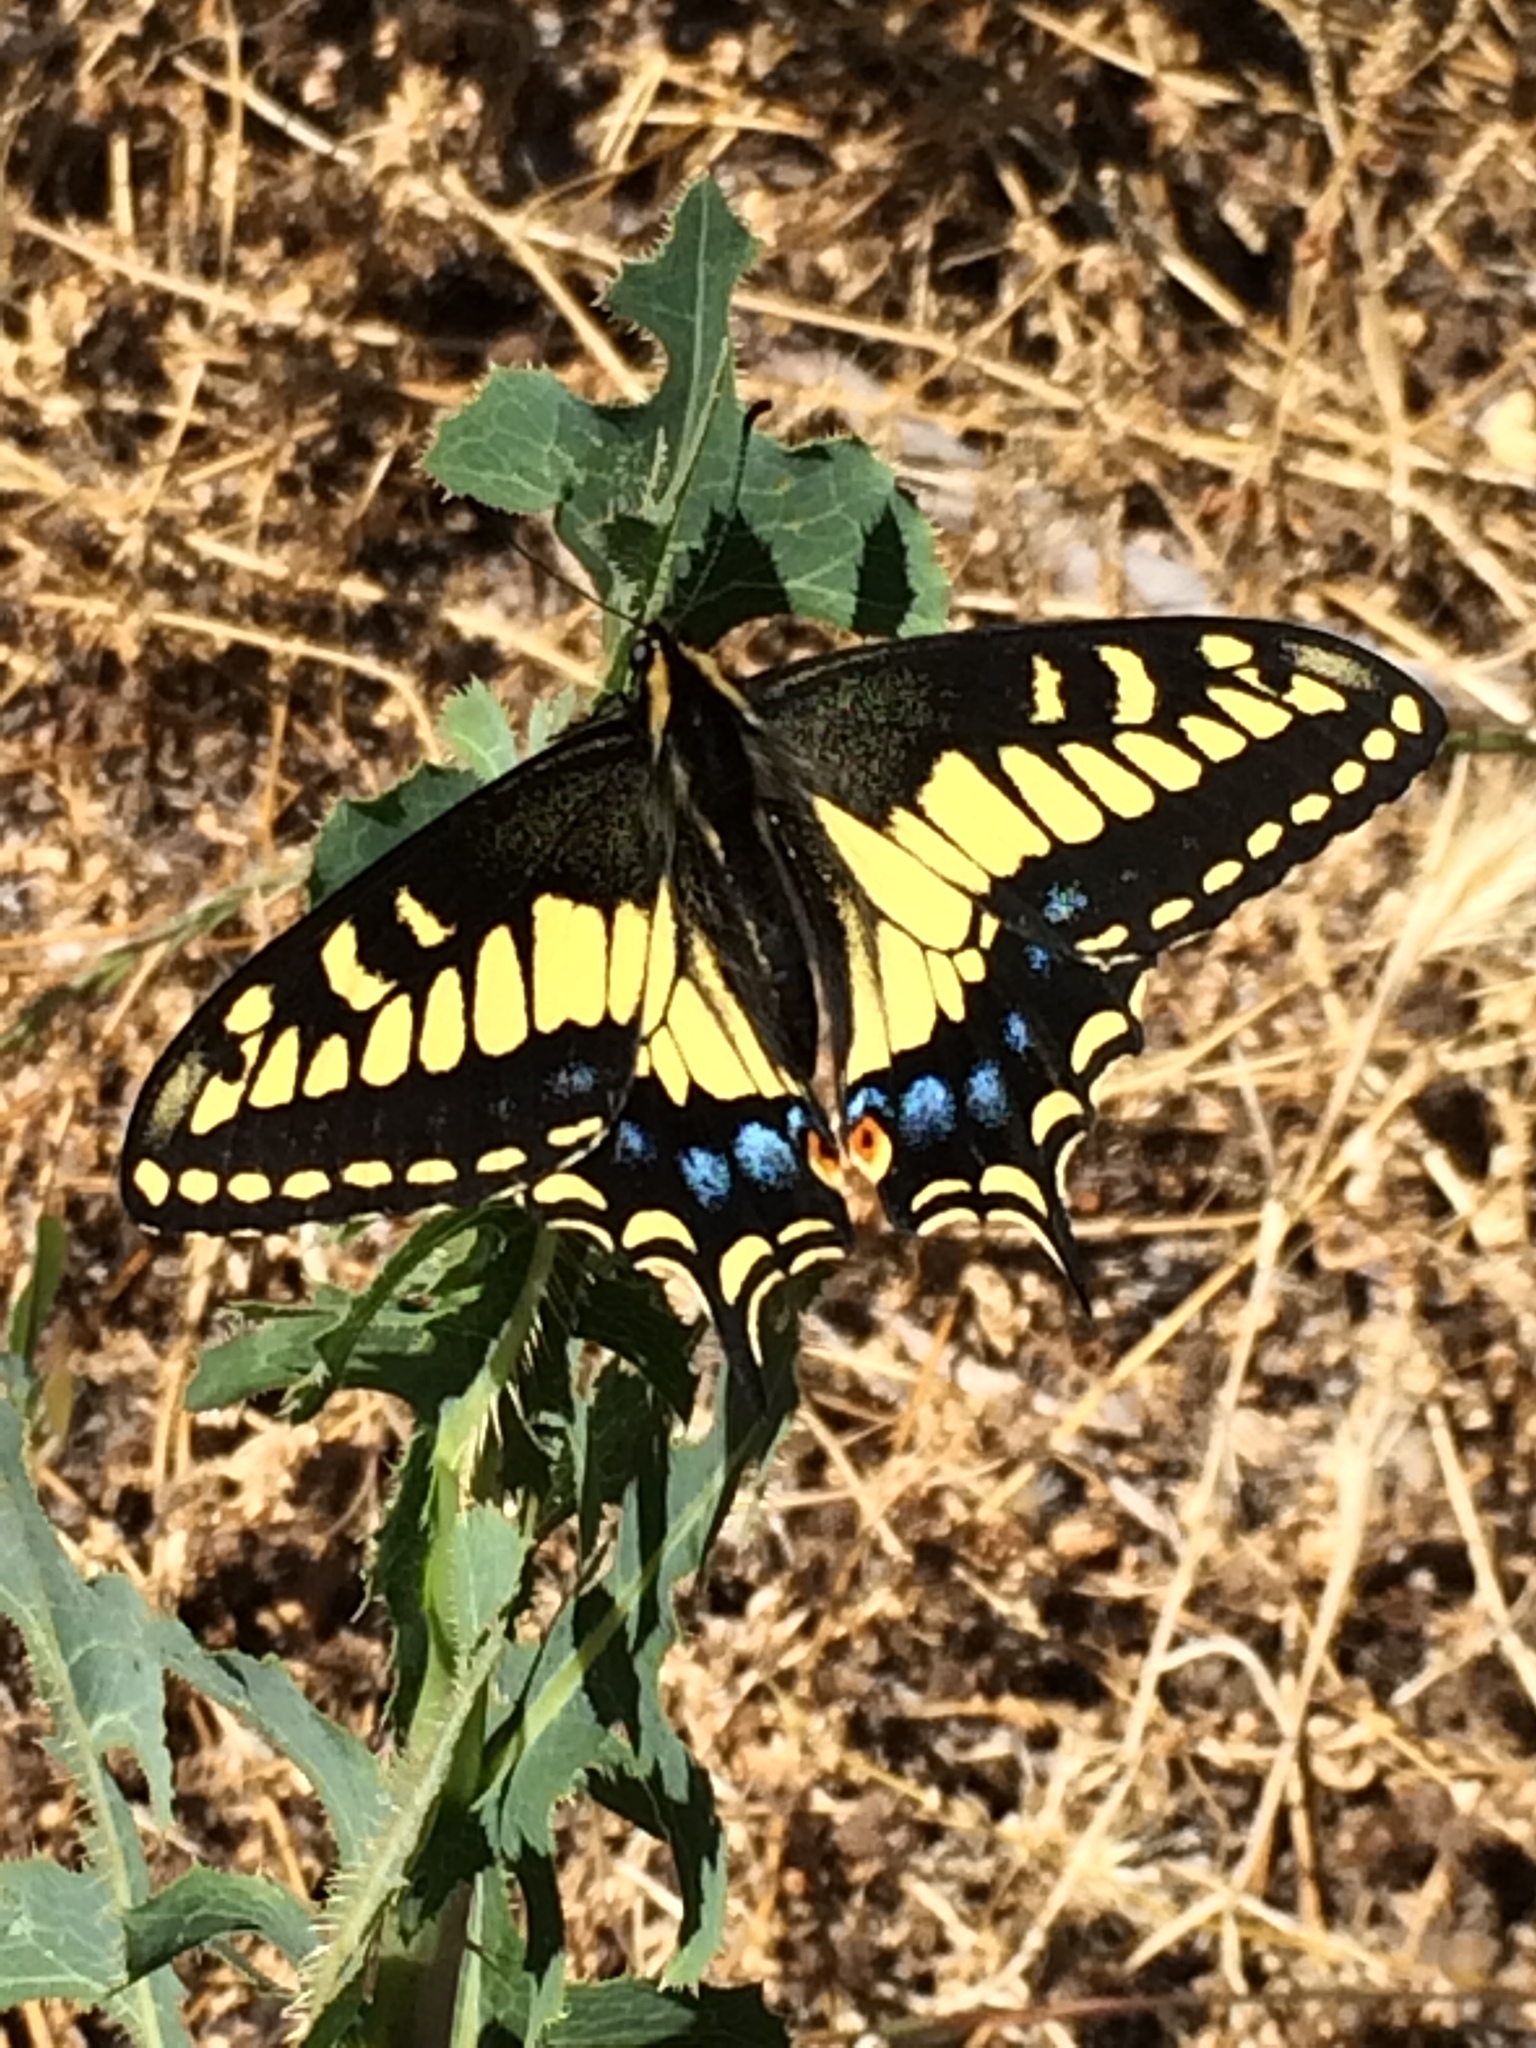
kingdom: Animalia
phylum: Arthropoda
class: Insecta
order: Lepidoptera
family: Papilionidae
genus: Papilio
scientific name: Papilio zelicaon
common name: Anise swallowtail
